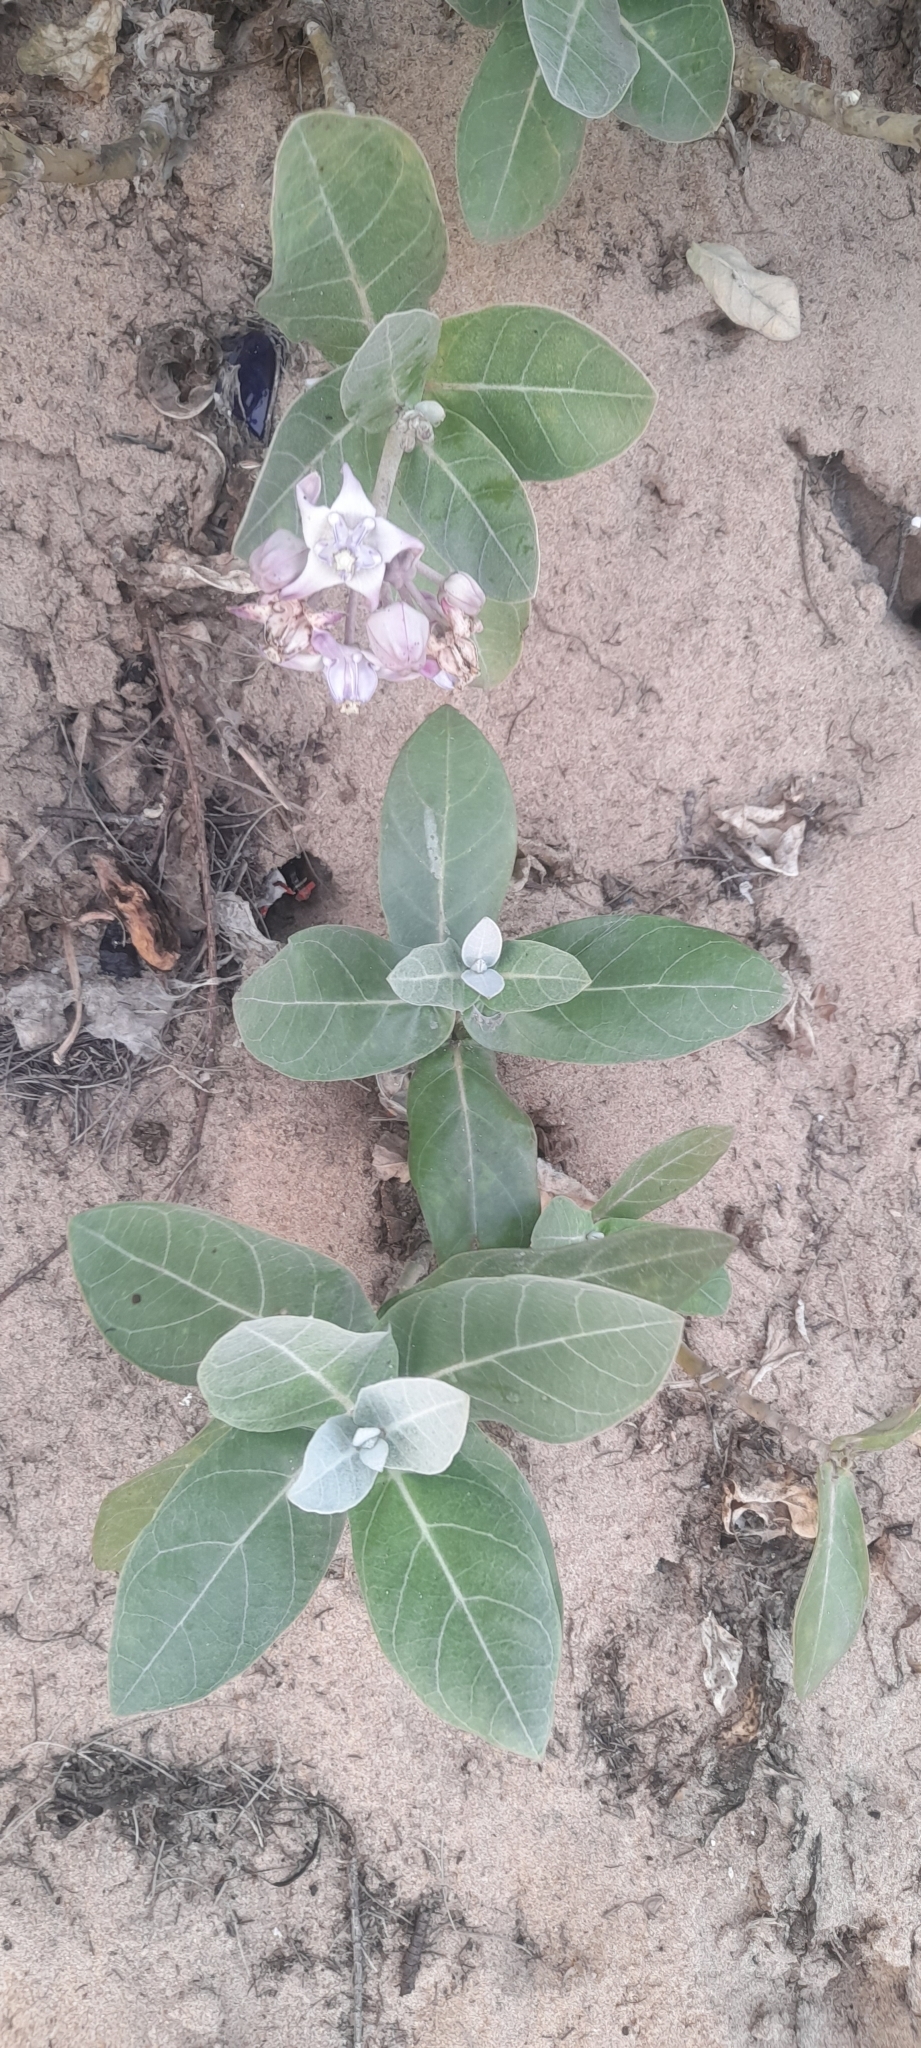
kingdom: Plantae
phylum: Tracheophyta
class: Magnoliopsida
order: Gentianales
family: Apocynaceae
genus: Calotropis
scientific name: Calotropis gigantea
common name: Crown flower
